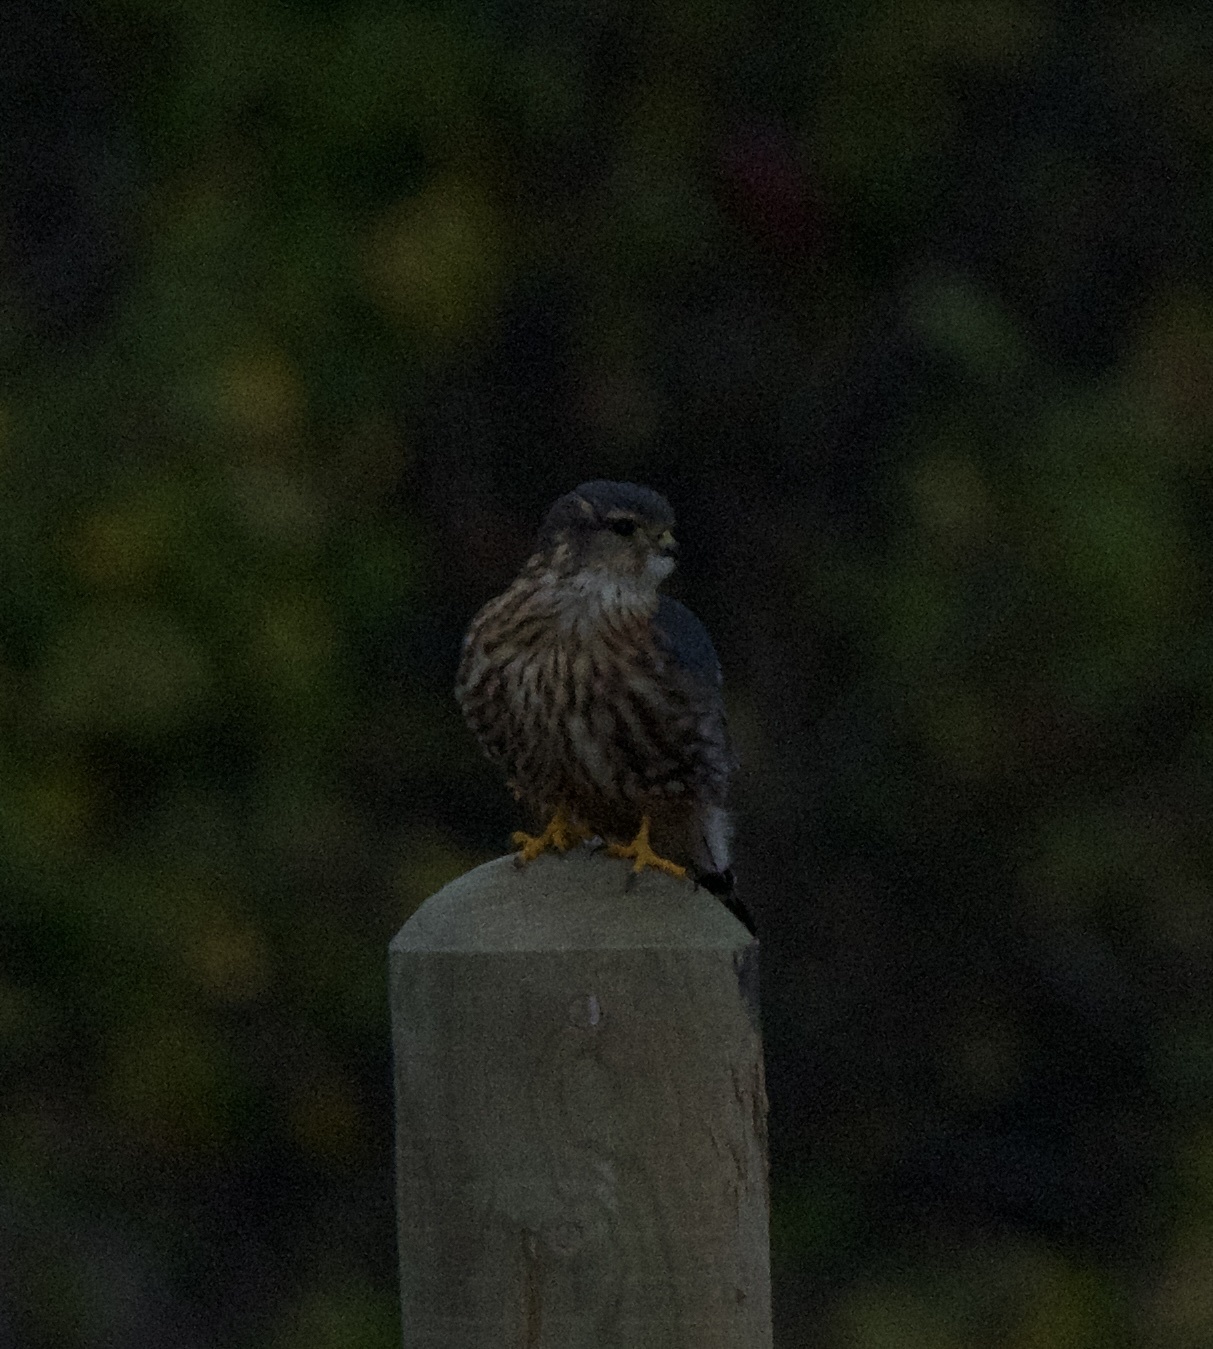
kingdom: Animalia
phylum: Chordata
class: Aves
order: Falconiformes
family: Falconidae
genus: Falco
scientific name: Falco columbarius
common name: Merlin
